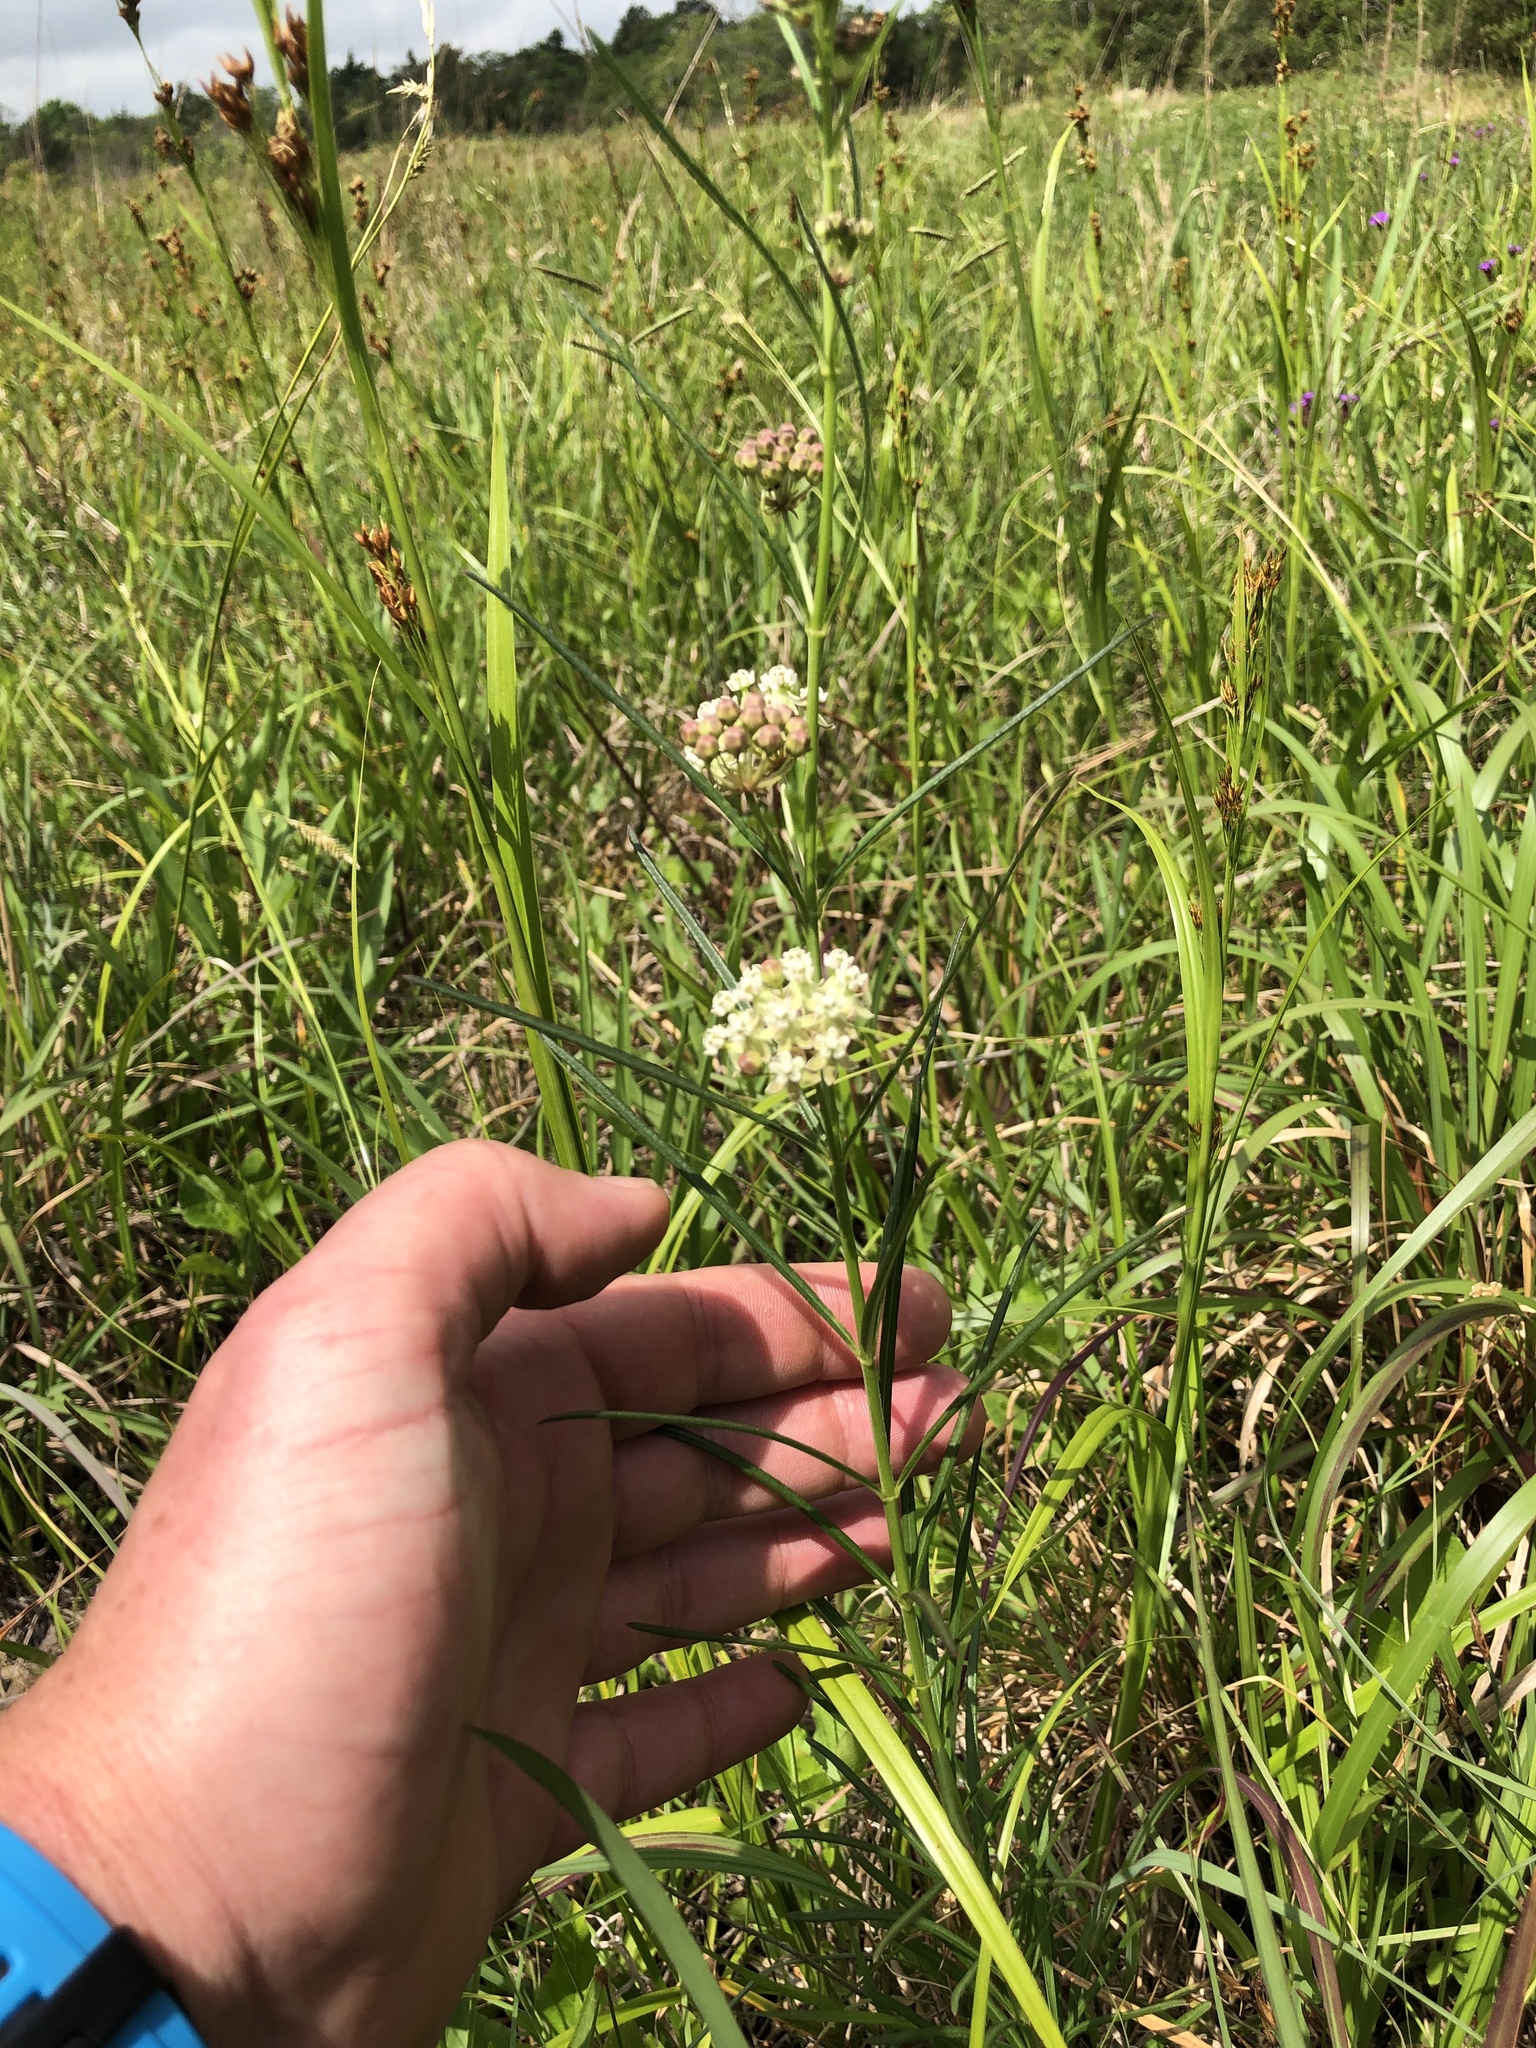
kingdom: Plantae
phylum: Tracheophyta
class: Magnoliopsida
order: Gentianales
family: Apocynaceae
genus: Asclepias
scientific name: Asclepias verticillata
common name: Eastern whorled milkweed
